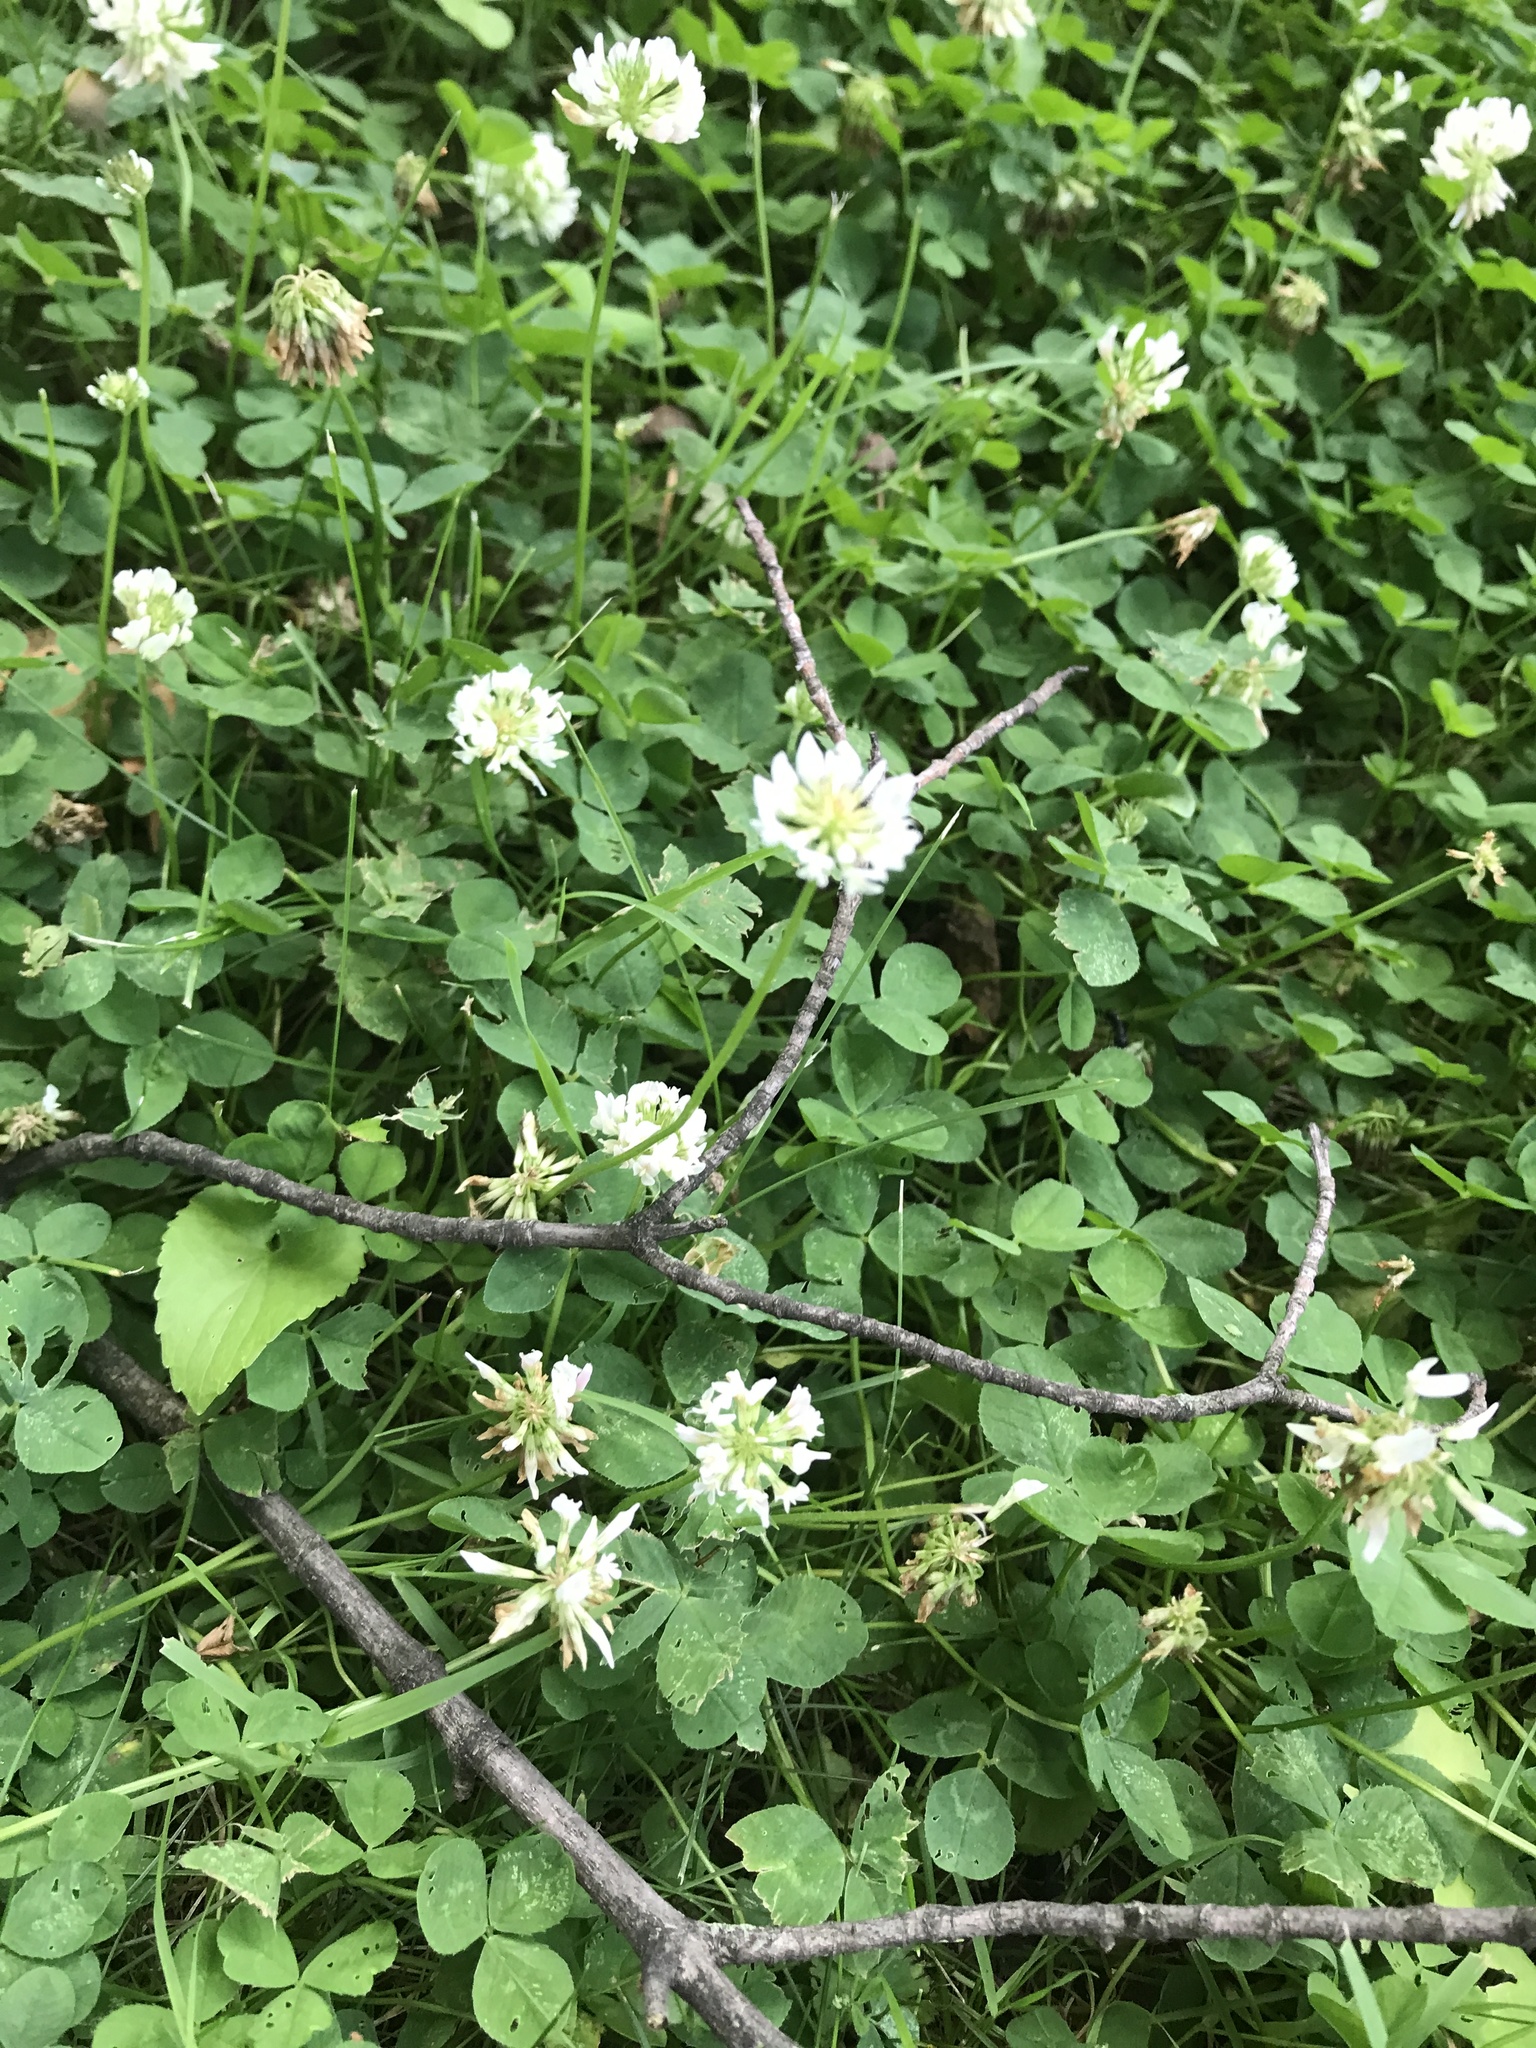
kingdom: Plantae
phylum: Tracheophyta
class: Magnoliopsida
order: Fabales
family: Fabaceae
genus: Trifolium
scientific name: Trifolium repens
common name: White clover
